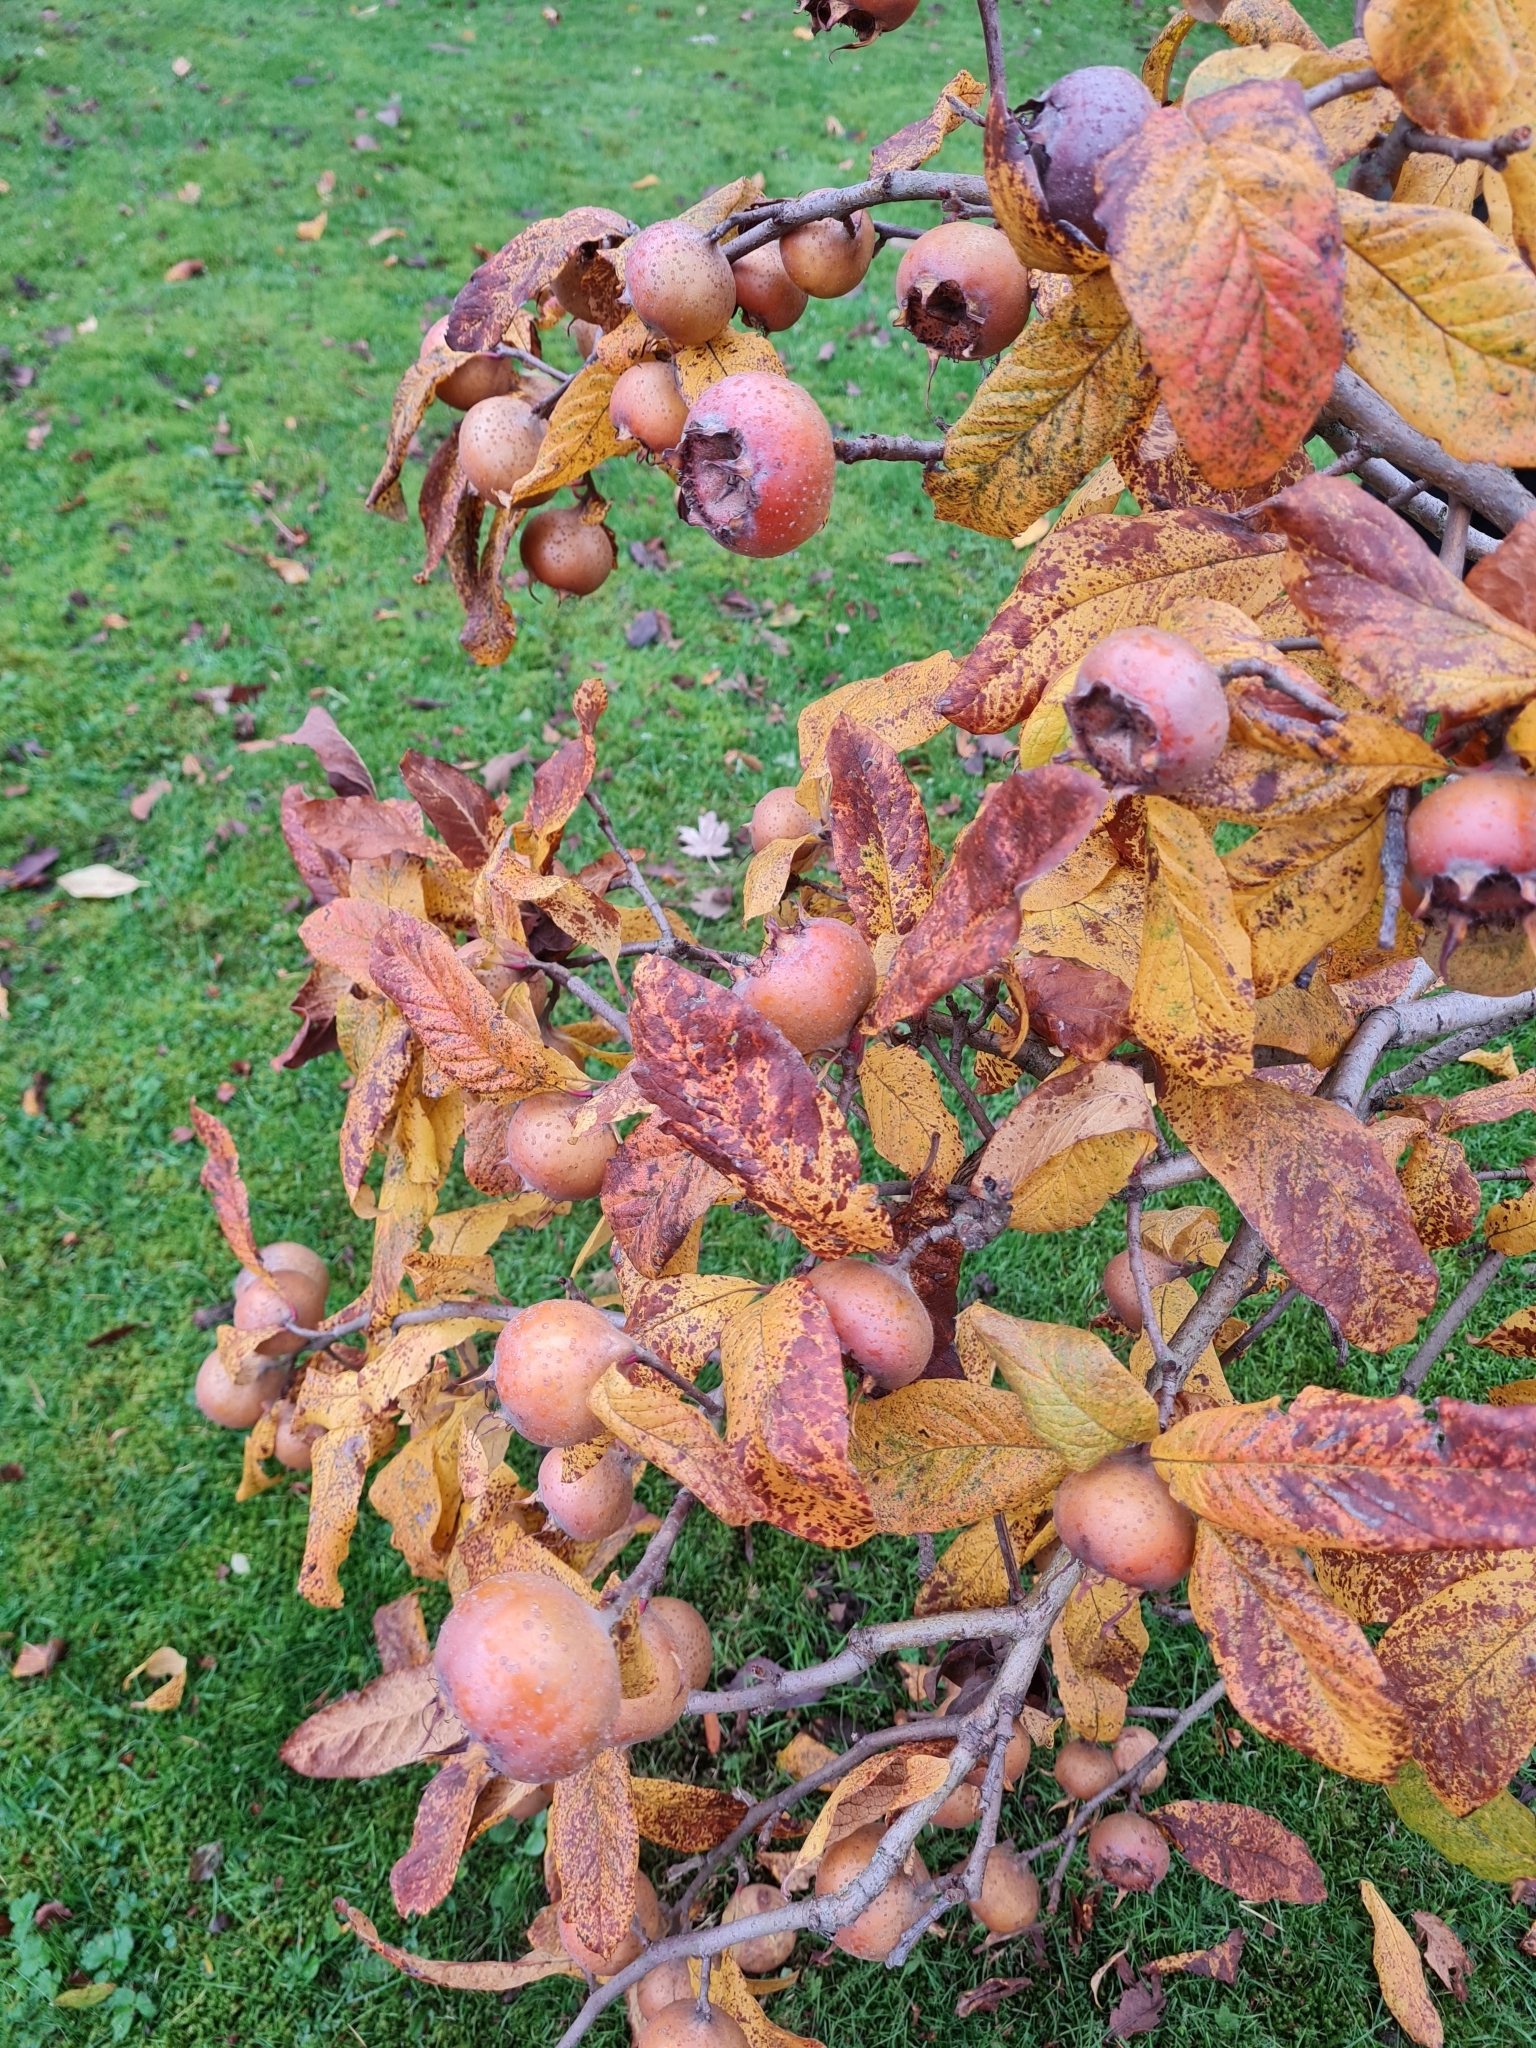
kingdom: Plantae
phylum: Tracheophyta
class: Magnoliopsida
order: Rosales
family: Rosaceae
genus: Mespilus
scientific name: Mespilus germanica
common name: Medlar
